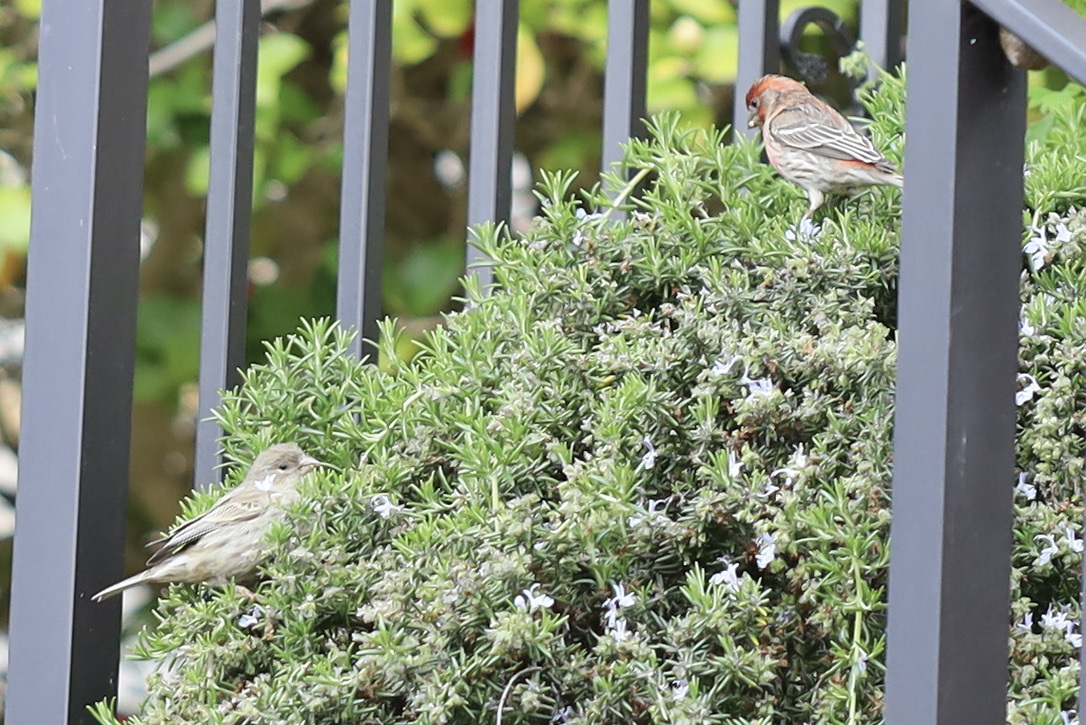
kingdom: Animalia
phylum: Chordata
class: Aves
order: Passeriformes
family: Fringillidae
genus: Haemorhous
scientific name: Haemorhous mexicanus
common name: House finch
